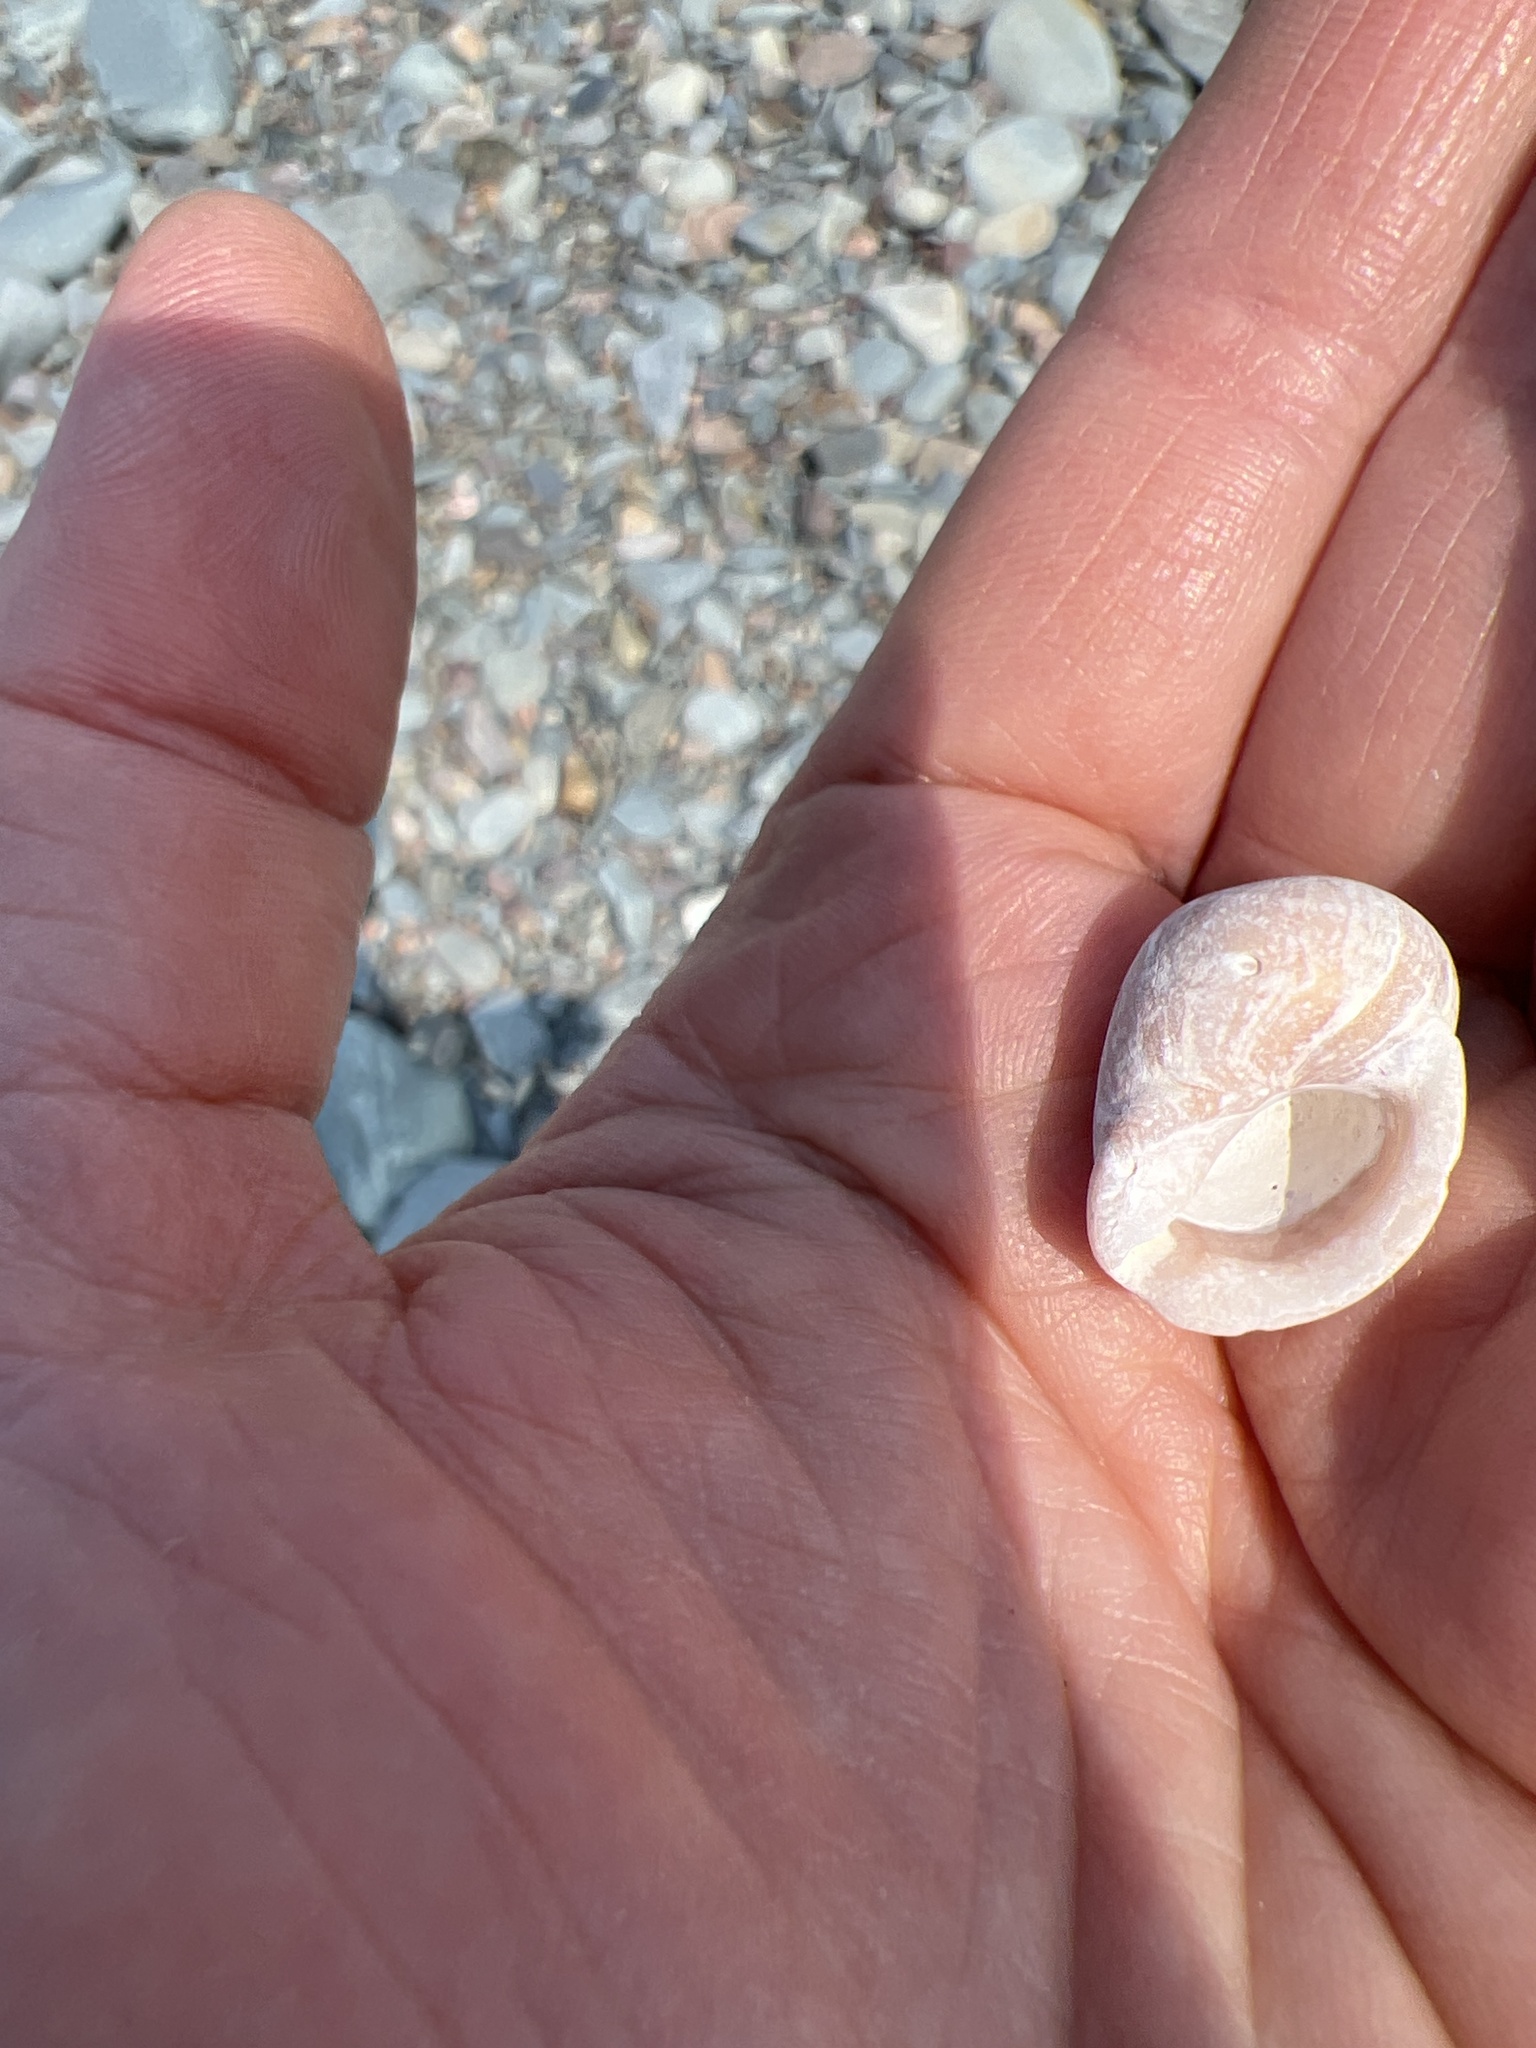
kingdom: Animalia
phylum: Mollusca
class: Gastropoda
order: Neogastropoda
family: Muricidae
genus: Nucella
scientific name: Nucella lapillus
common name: Dog whelk
